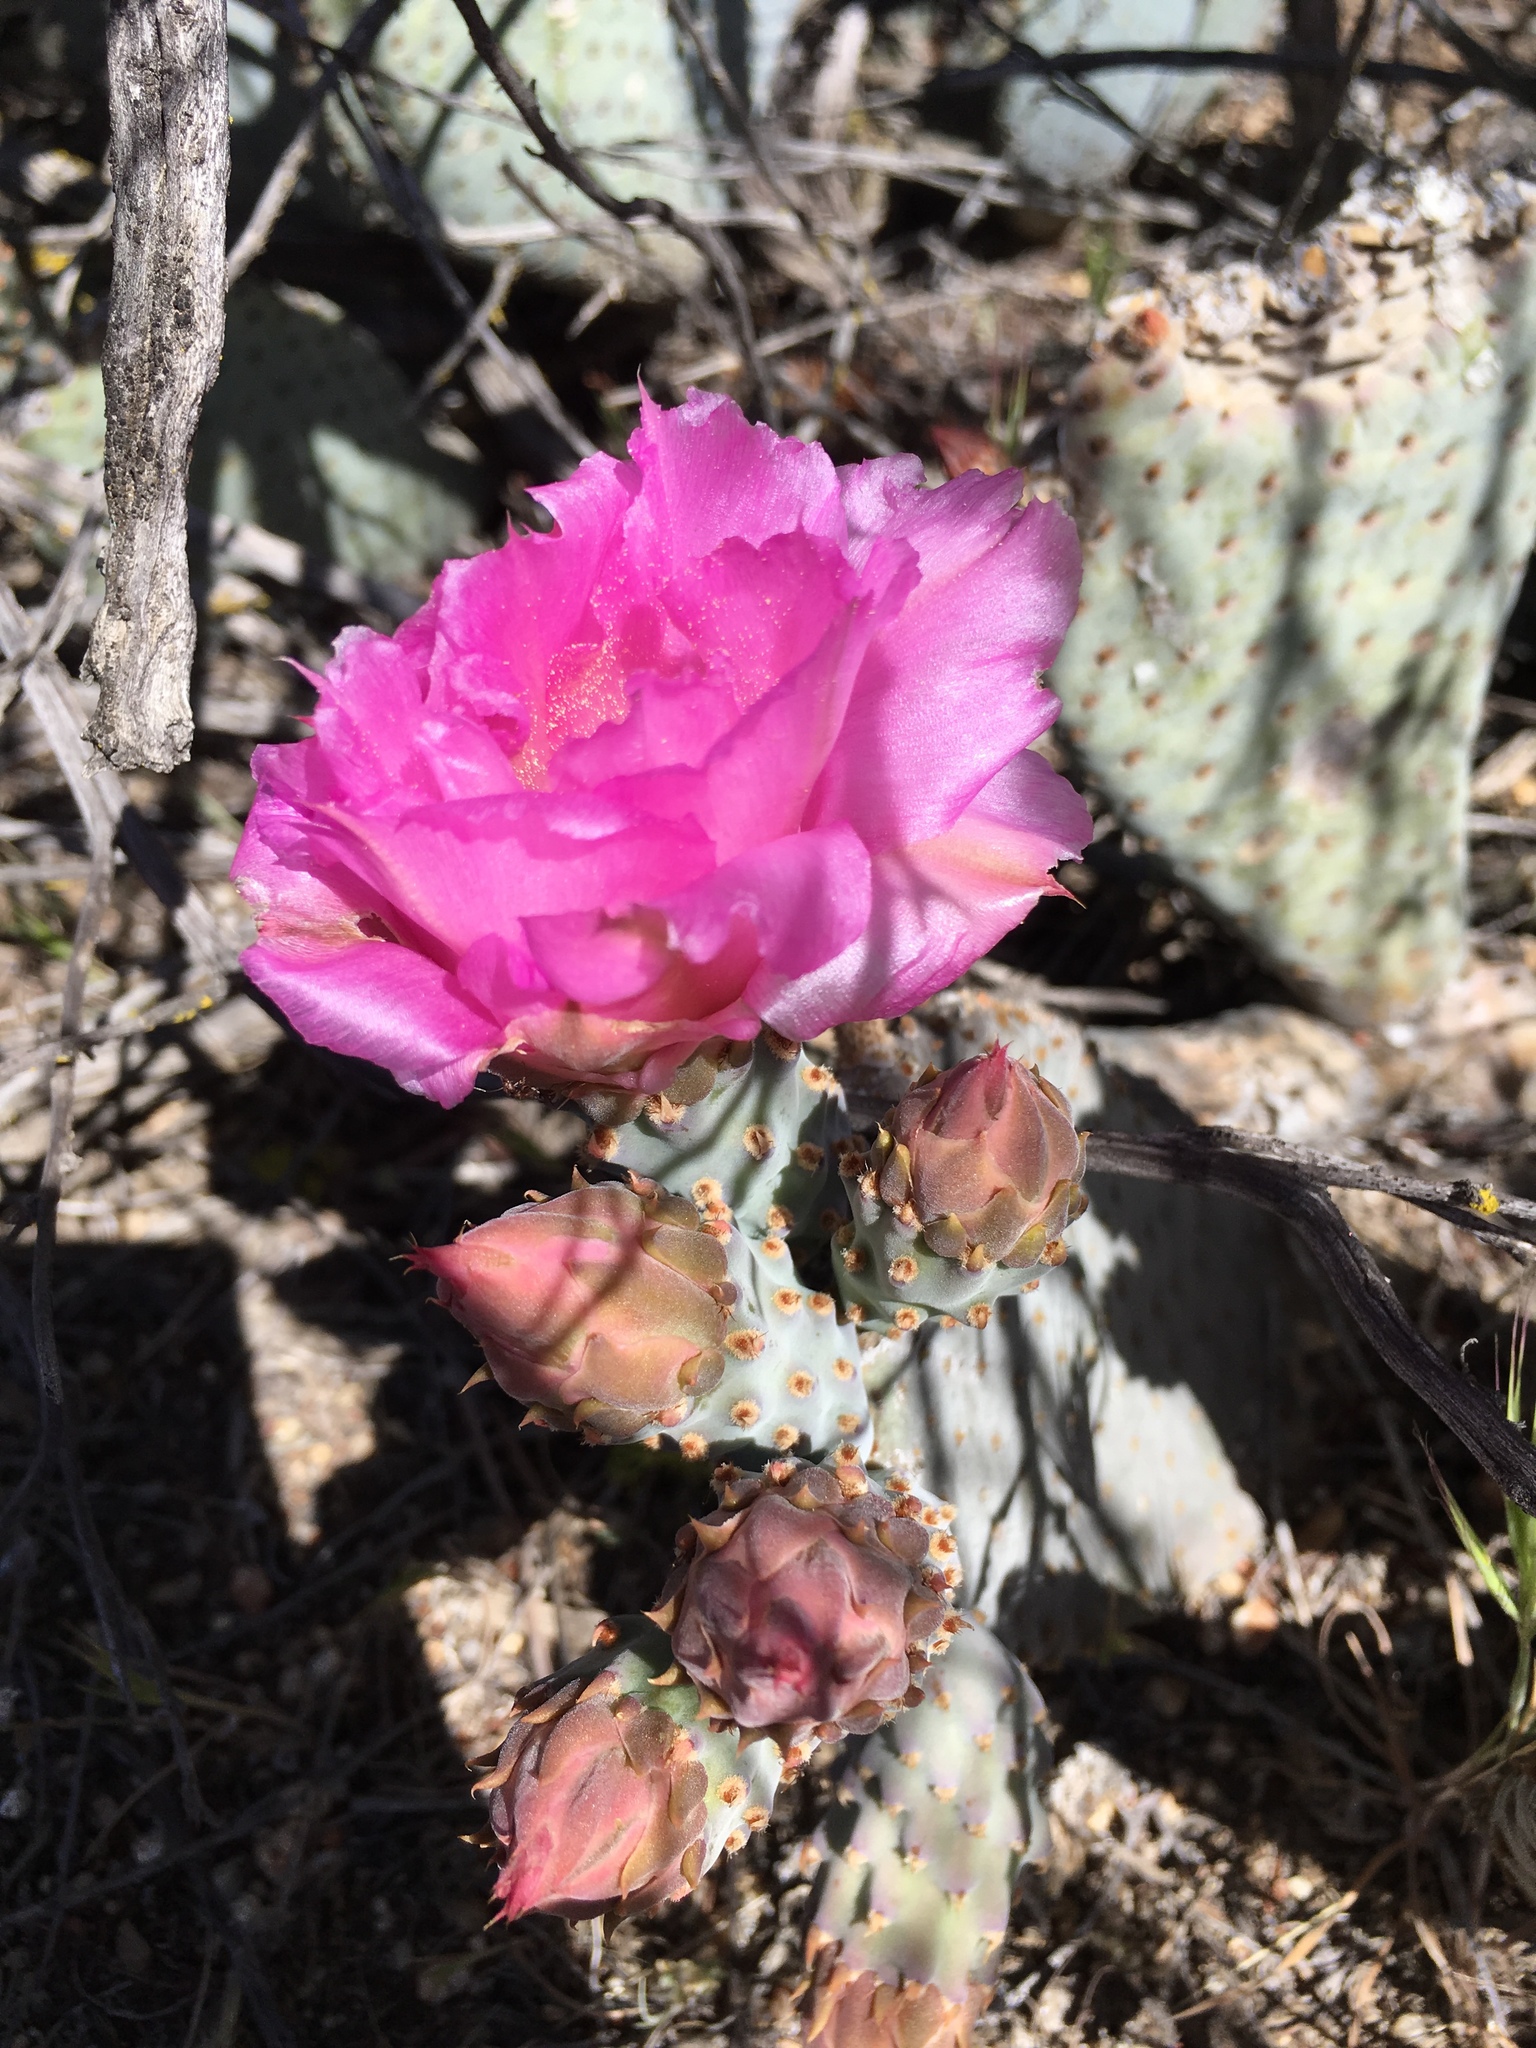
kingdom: Plantae
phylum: Tracheophyta
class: Magnoliopsida
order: Caryophyllales
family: Cactaceae
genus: Opuntia
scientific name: Opuntia basilaris
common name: Beavertail prickly-pear
